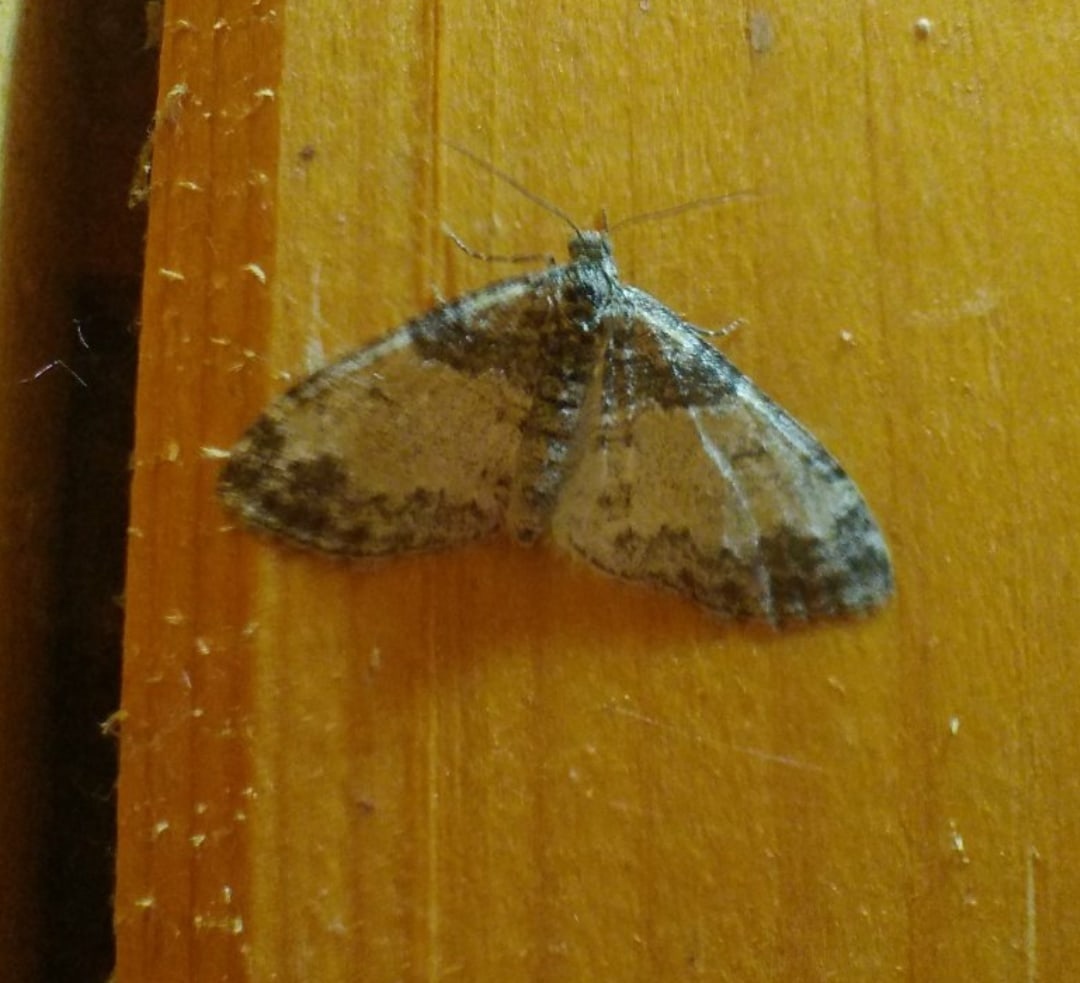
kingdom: Animalia
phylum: Arthropoda
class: Insecta
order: Lepidoptera
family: Geometridae
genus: Lobophora
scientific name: Lobophora halterata
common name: Seraphim
